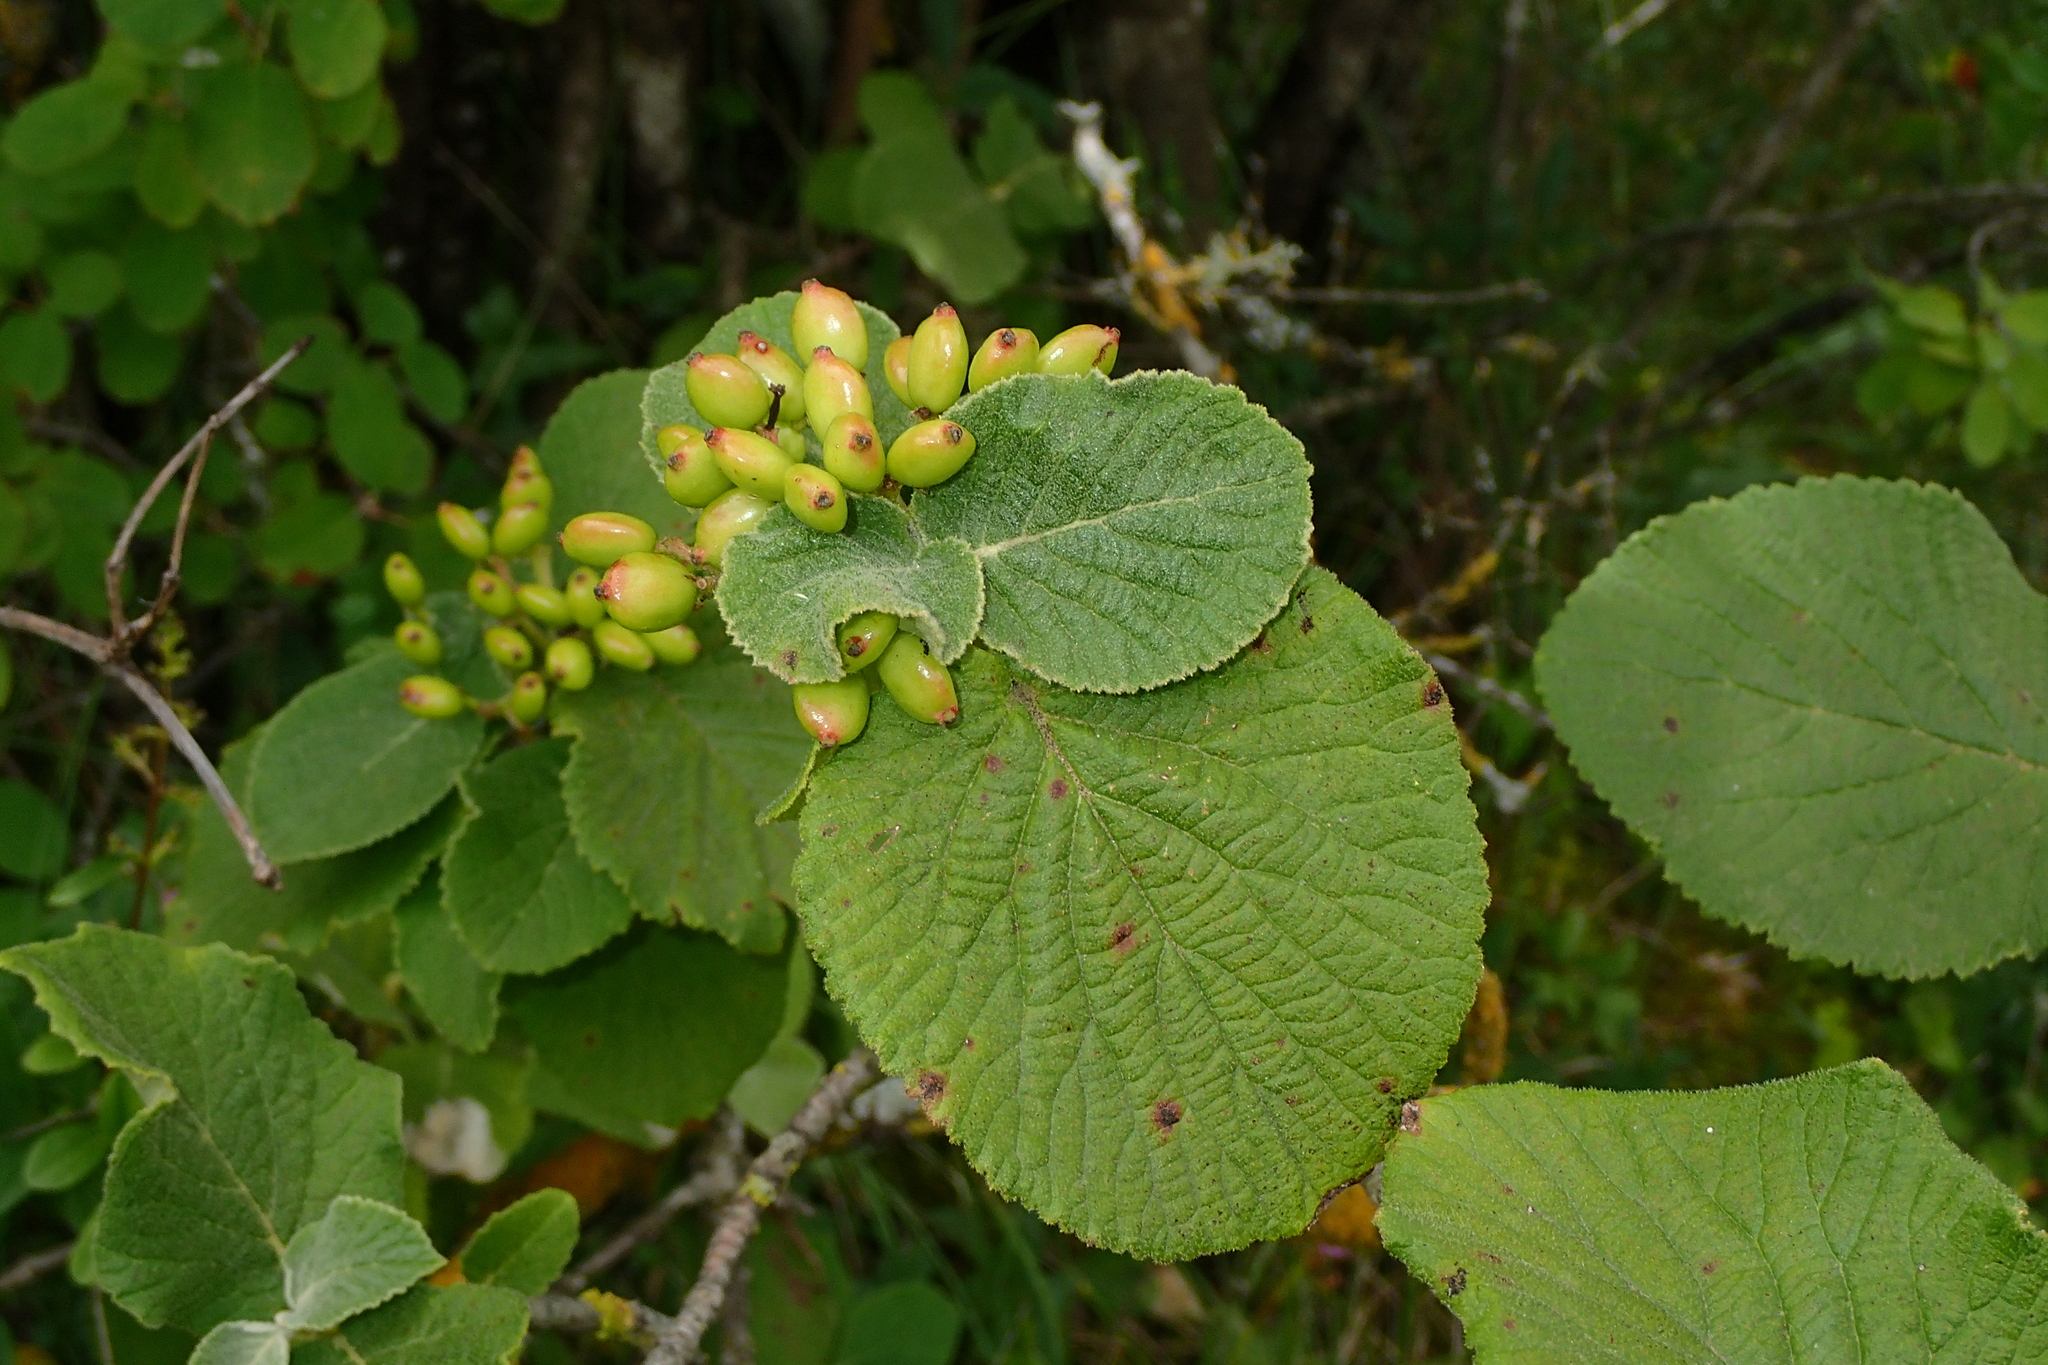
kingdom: Plantae
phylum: Tracheophyta
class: Magnoliopsida
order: Dipsacales
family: Viburnaceae
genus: Viburnum
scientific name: Viburnum lantana
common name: Wayfaring tree
